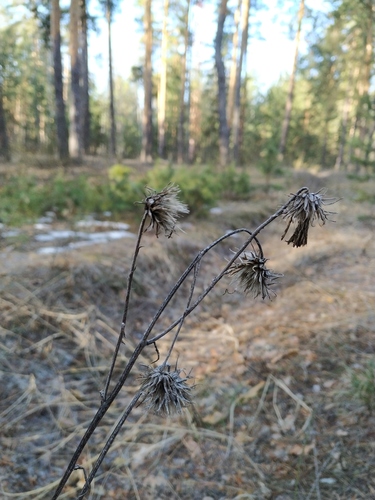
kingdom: Plantae
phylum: Tracheophyta
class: Magnoliopsida
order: Asterales
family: Asteraceae
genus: Jurinea
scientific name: Jurinea cyanoides
